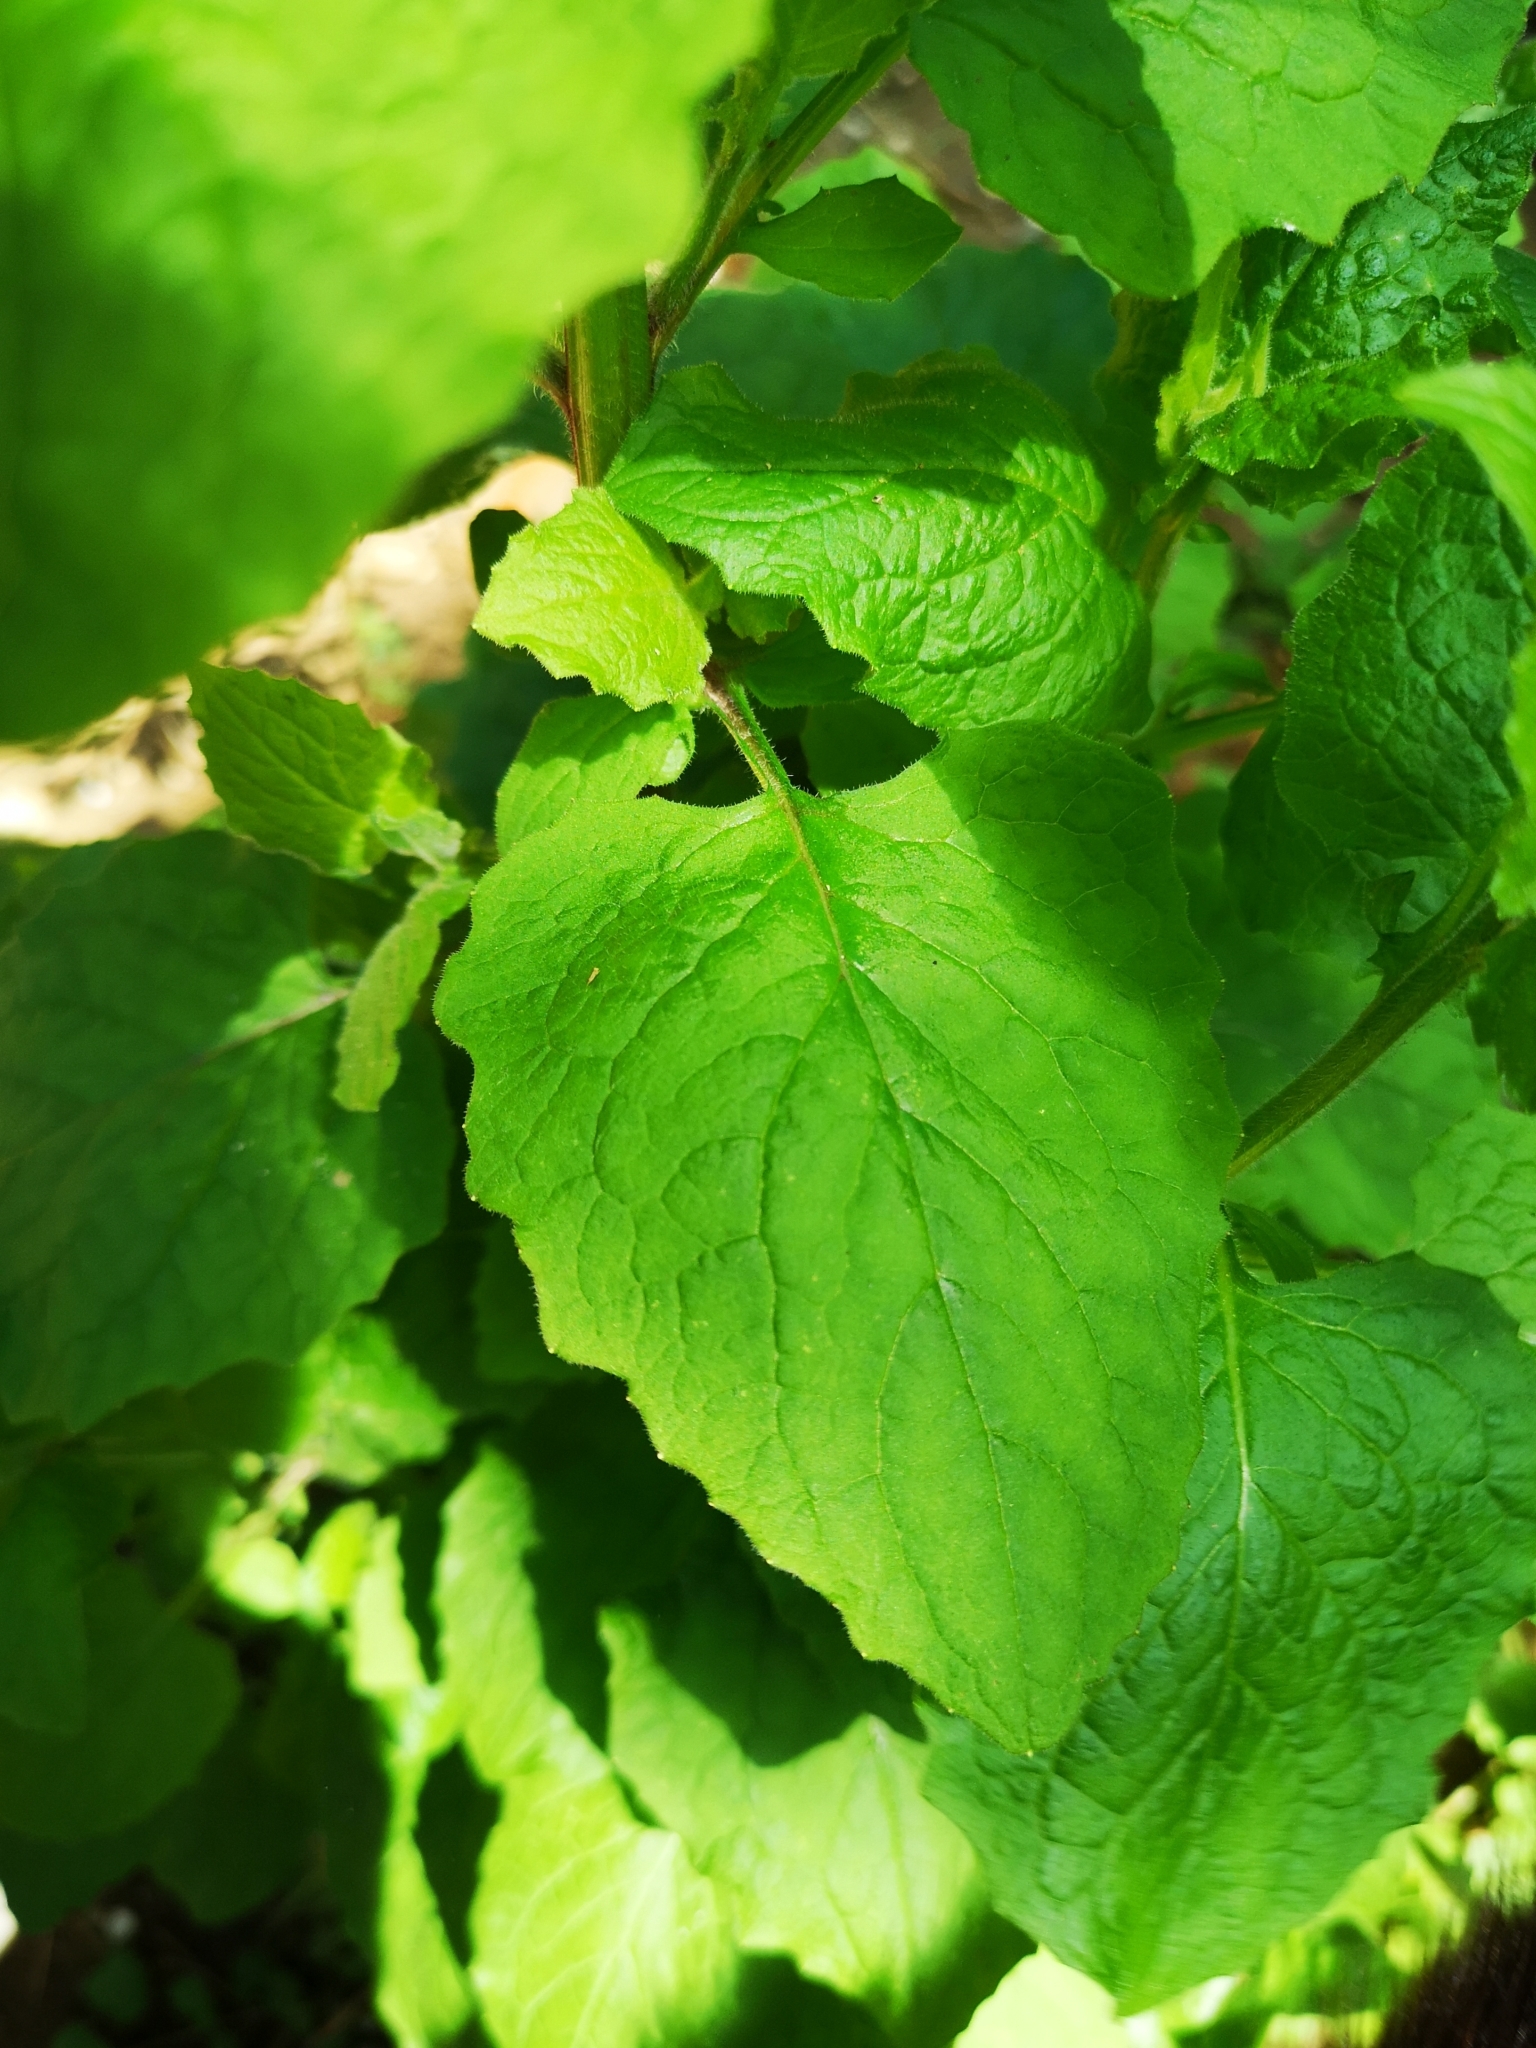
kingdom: Plantae
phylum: Tracheophyta
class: Magnoliopsida
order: Asterales
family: Asteraceae
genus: Lapsana
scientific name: Lapsana communis
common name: Nipplewort
